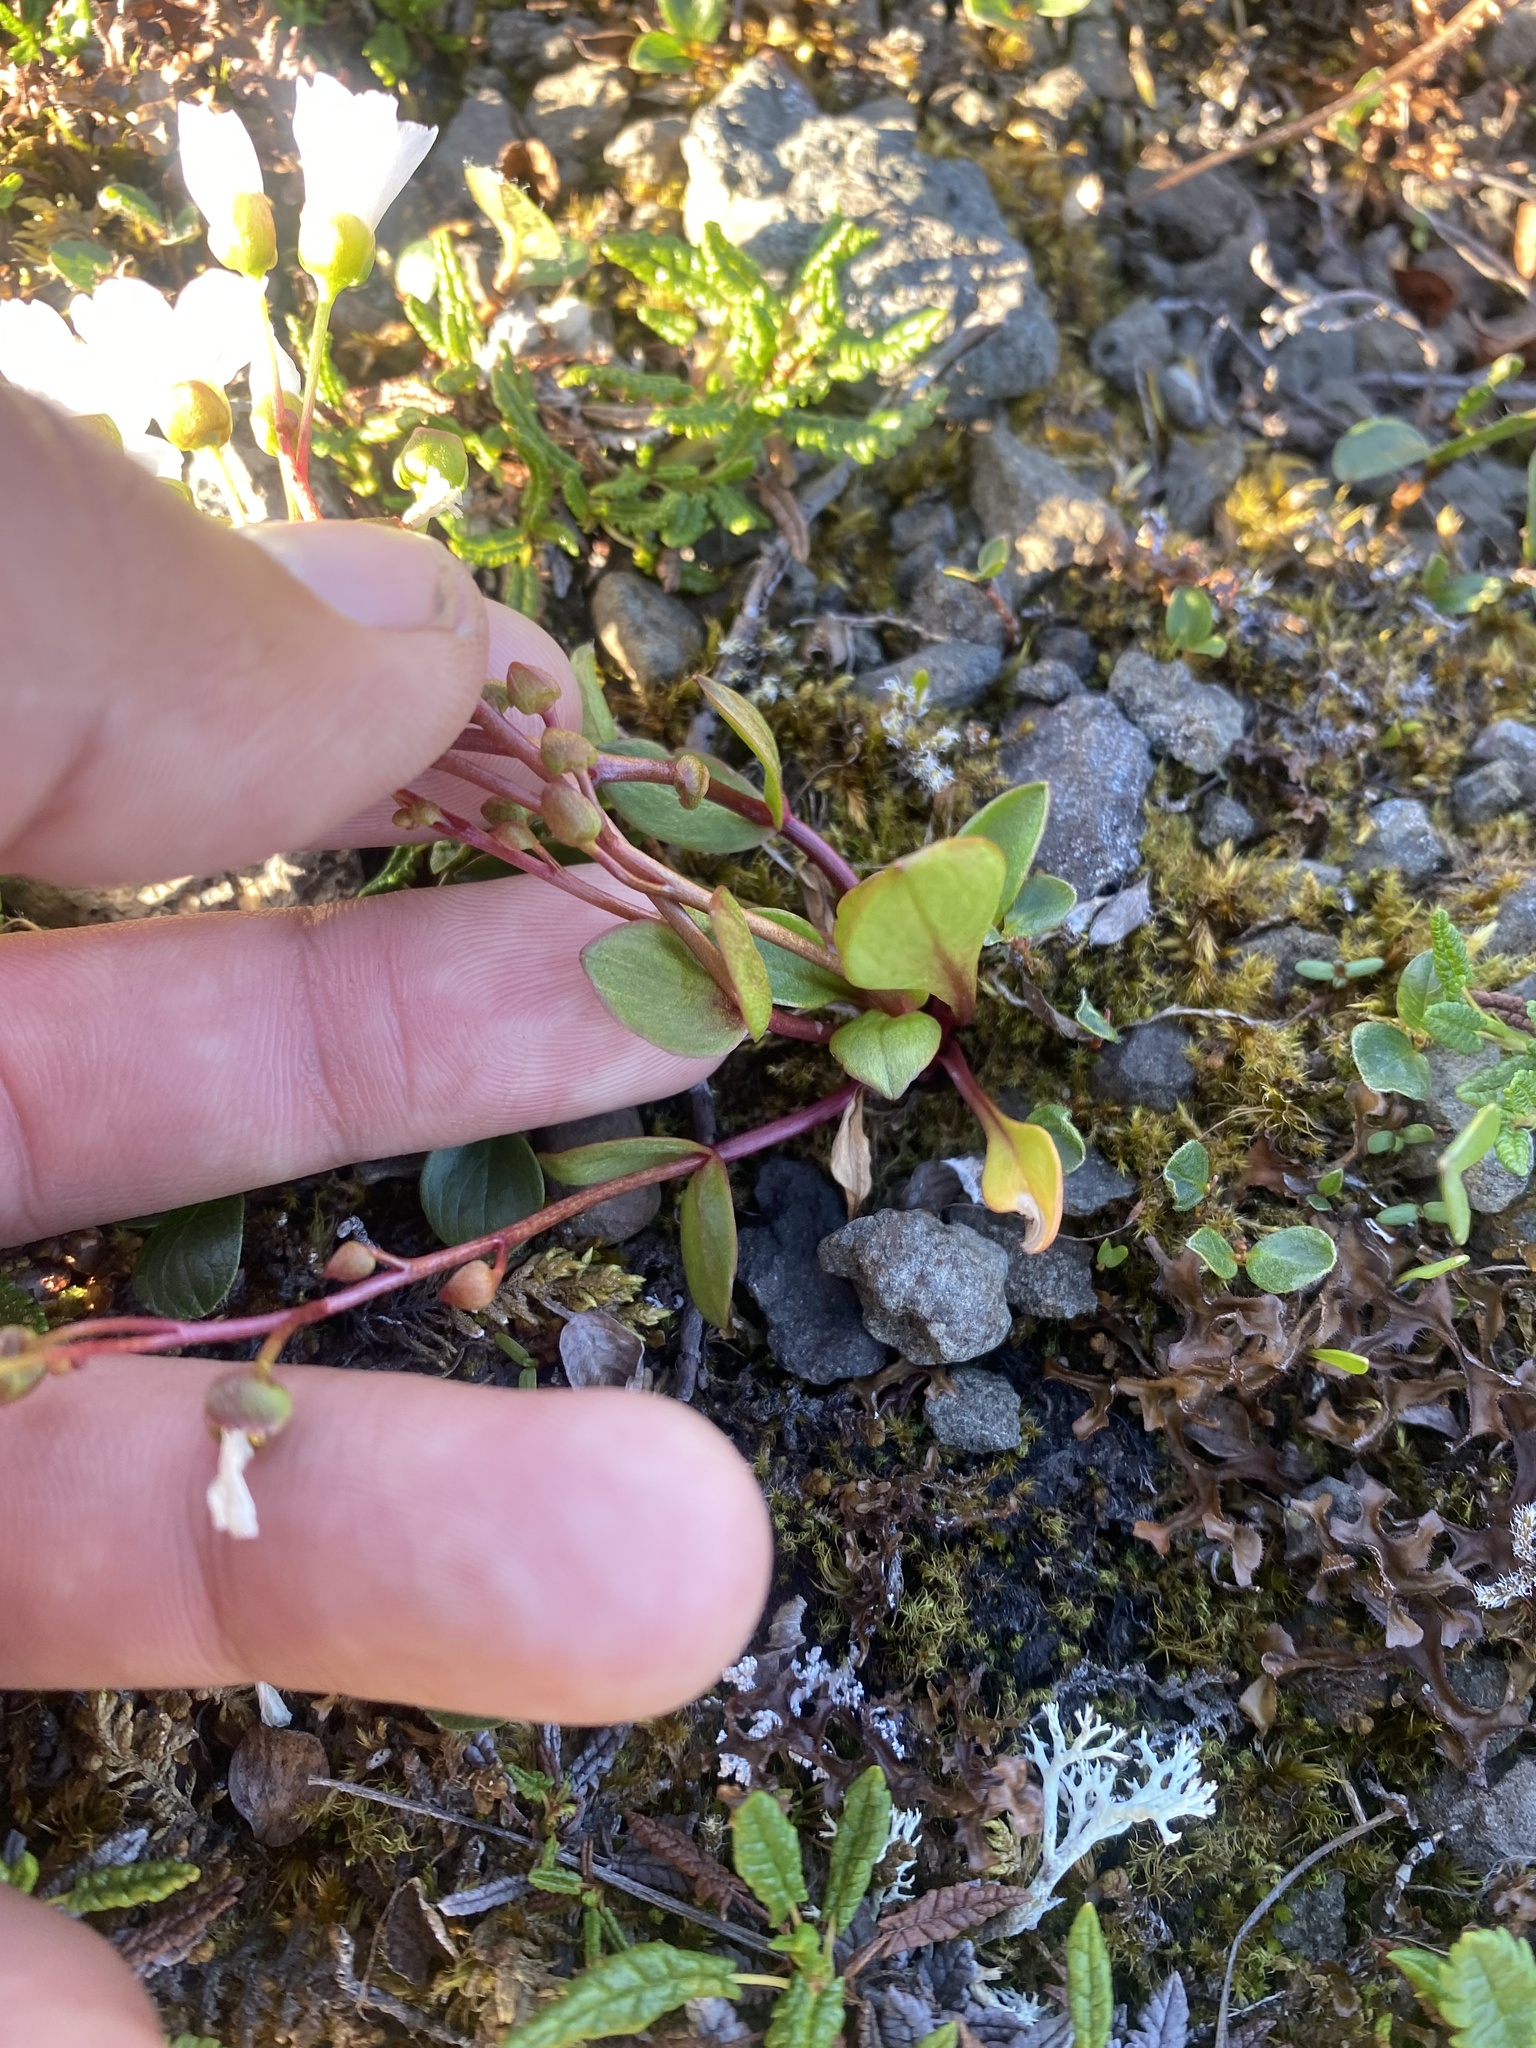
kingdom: Plantae
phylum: Tracheophyta
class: Magnoliopsida
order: Caryophyllales
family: Montiaceae
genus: Claytonia
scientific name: Claytonia joanneana
